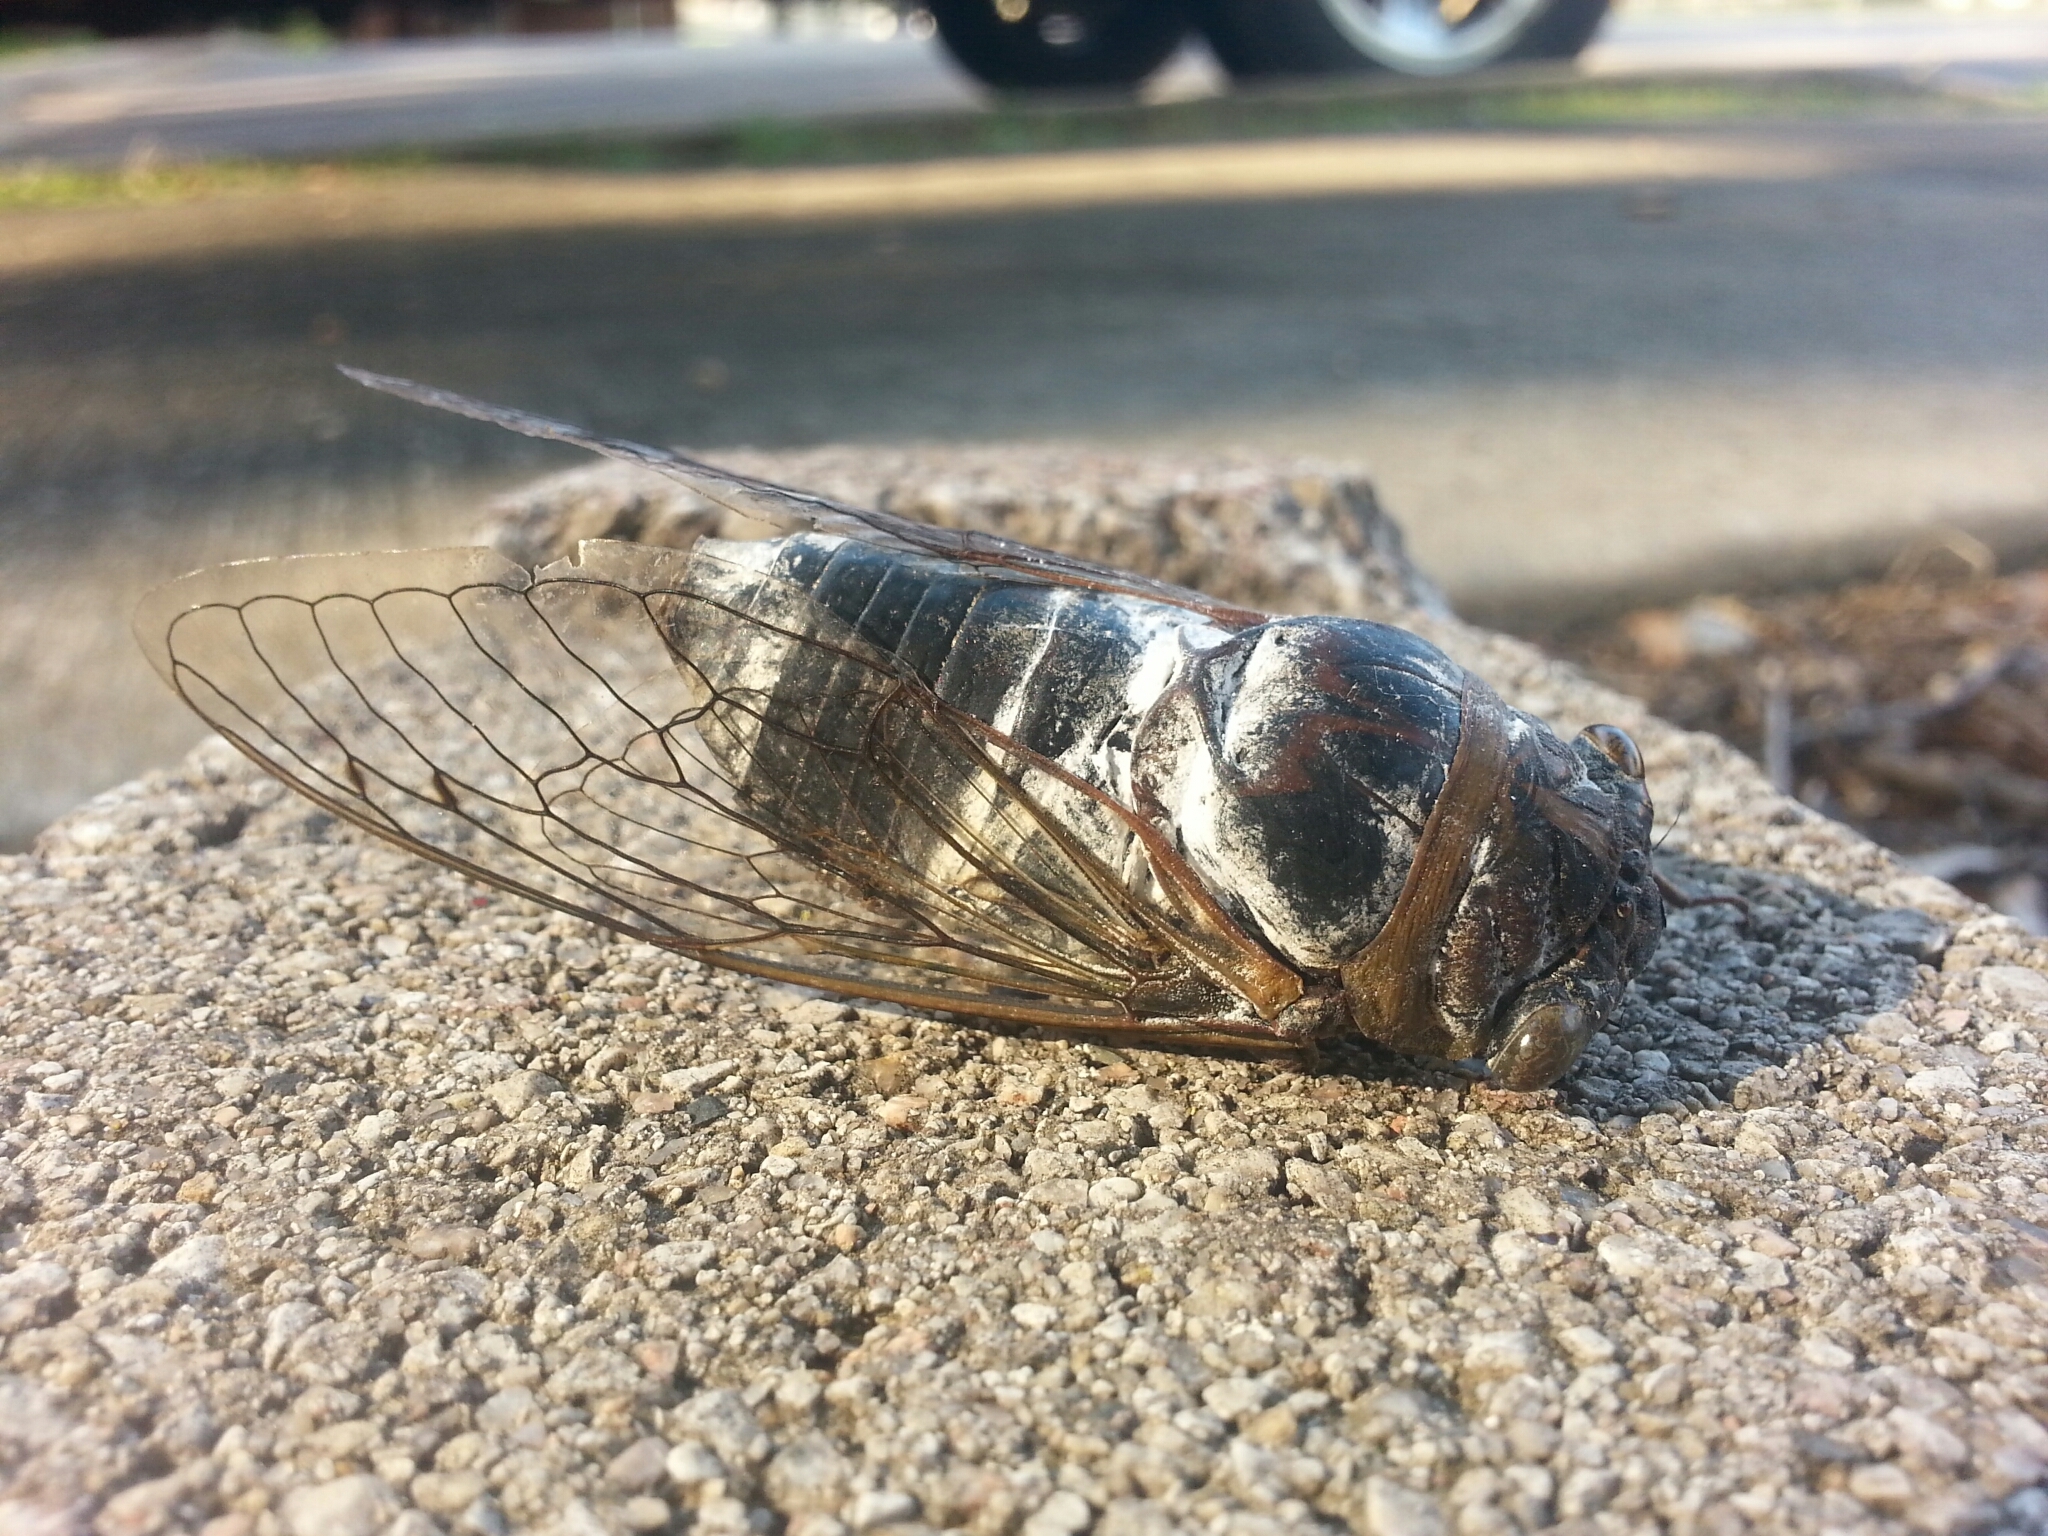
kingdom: Animalia
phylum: Arthropoda
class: Insecta
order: Hemiptera
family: Cicadidae
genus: Diceroprocta
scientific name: Diceroprocta grossa
